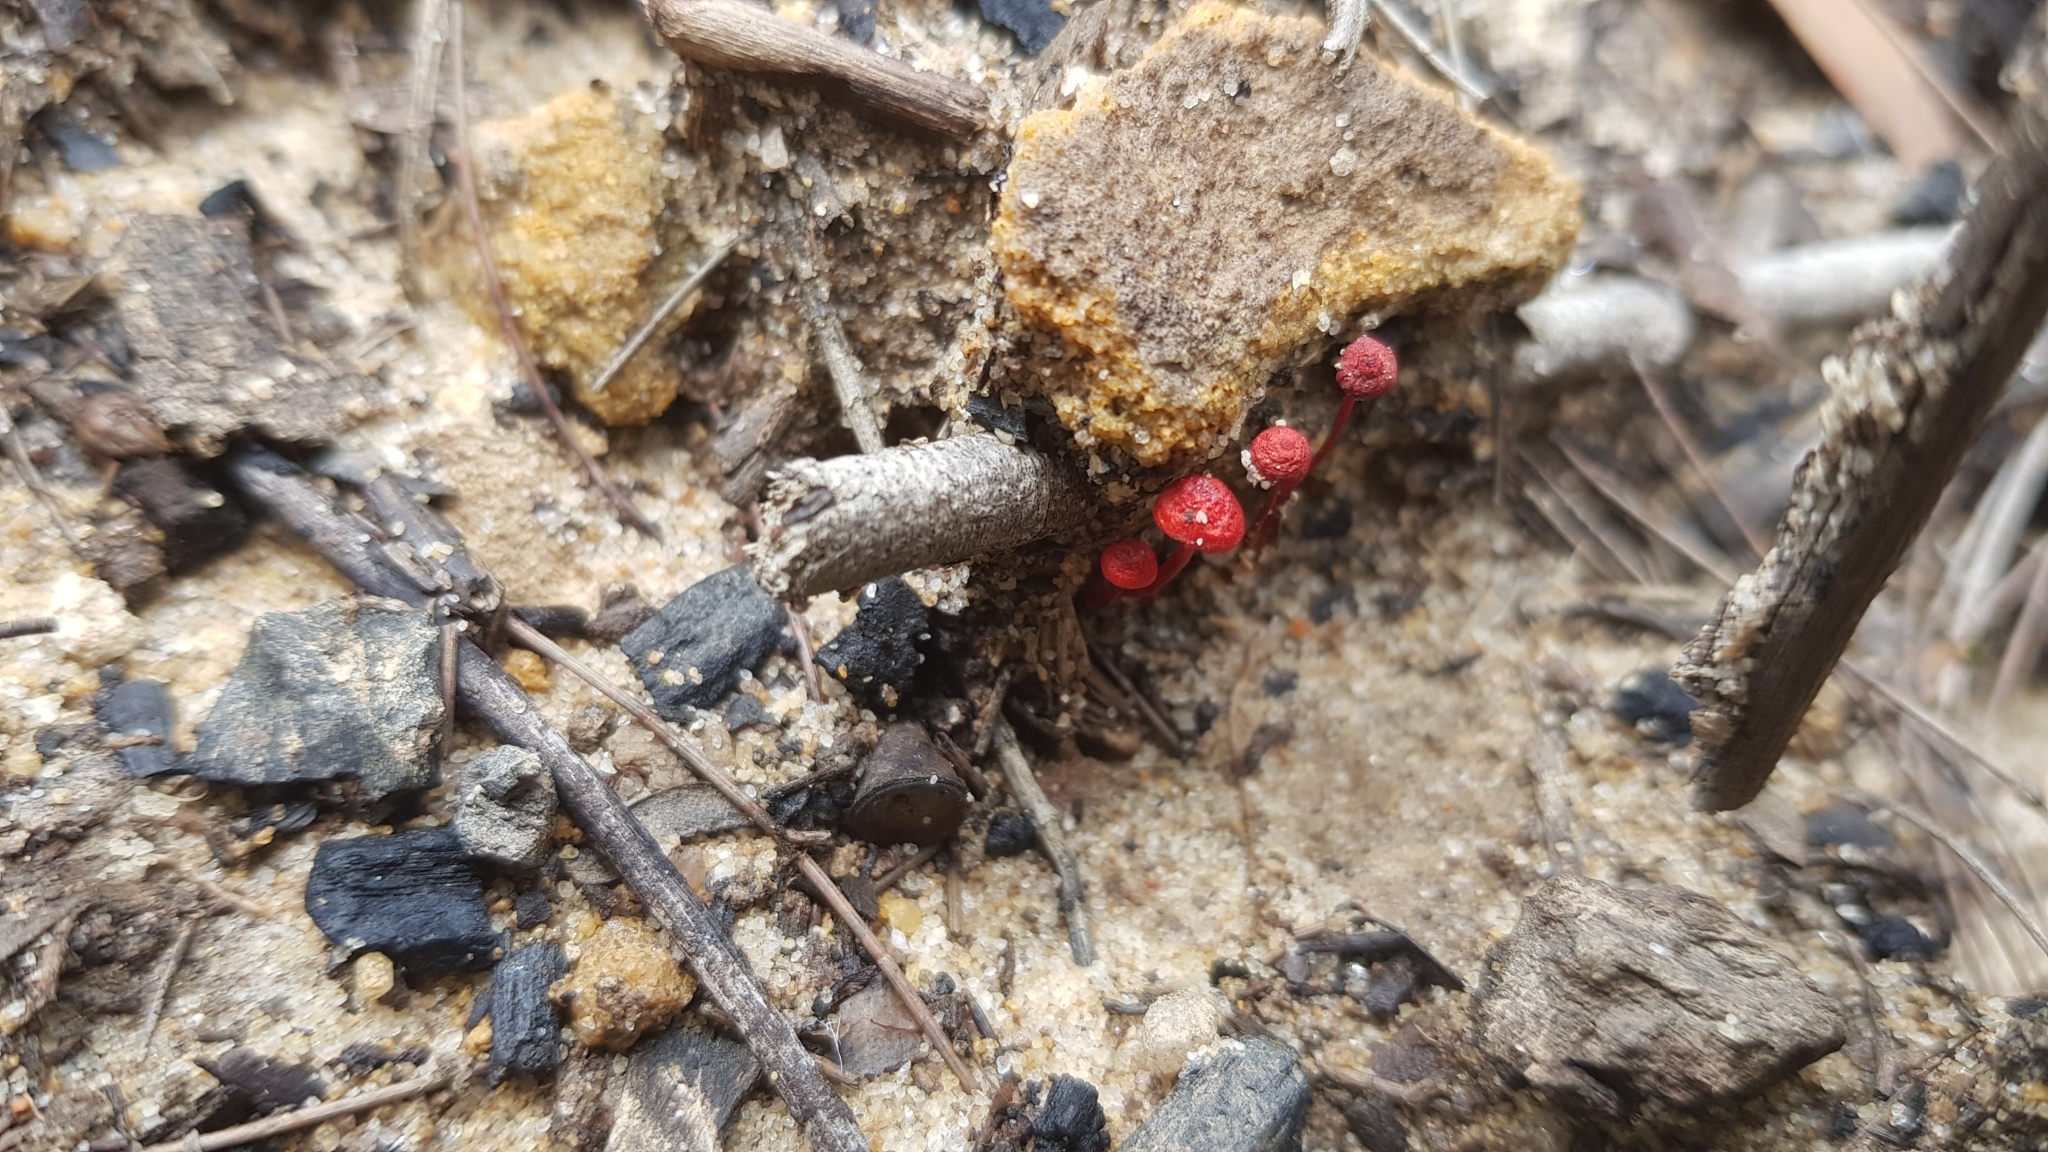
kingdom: Fungi
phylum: Basidiomycota
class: Agaricomycetes
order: Agaricales
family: Mycenaceae
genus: Cruentomycena
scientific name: Cruentomycena viscidocruenta
